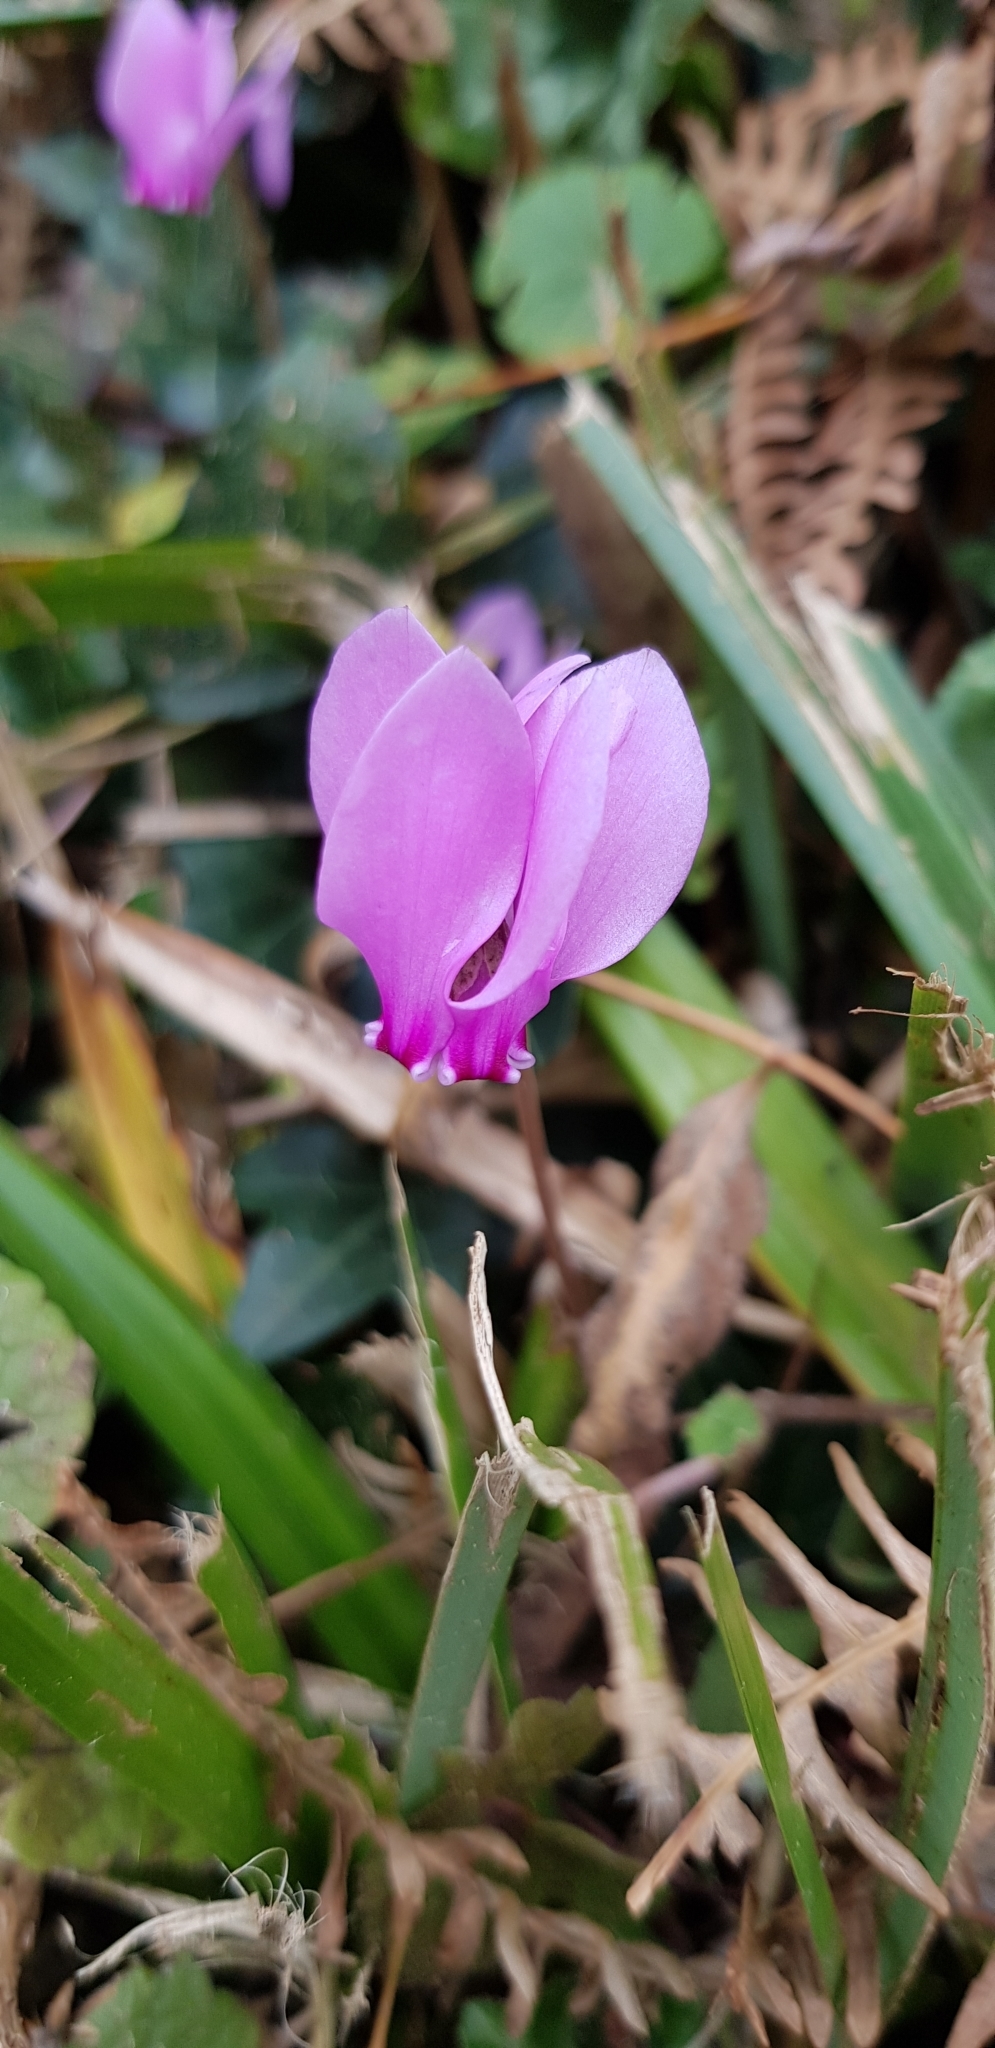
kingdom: Plantae
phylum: Tracheophyta
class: Magnoliopsida
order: Ericales
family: Primulaceae
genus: Cyclamen
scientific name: Cyclamen hederifolium
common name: Sowbread
